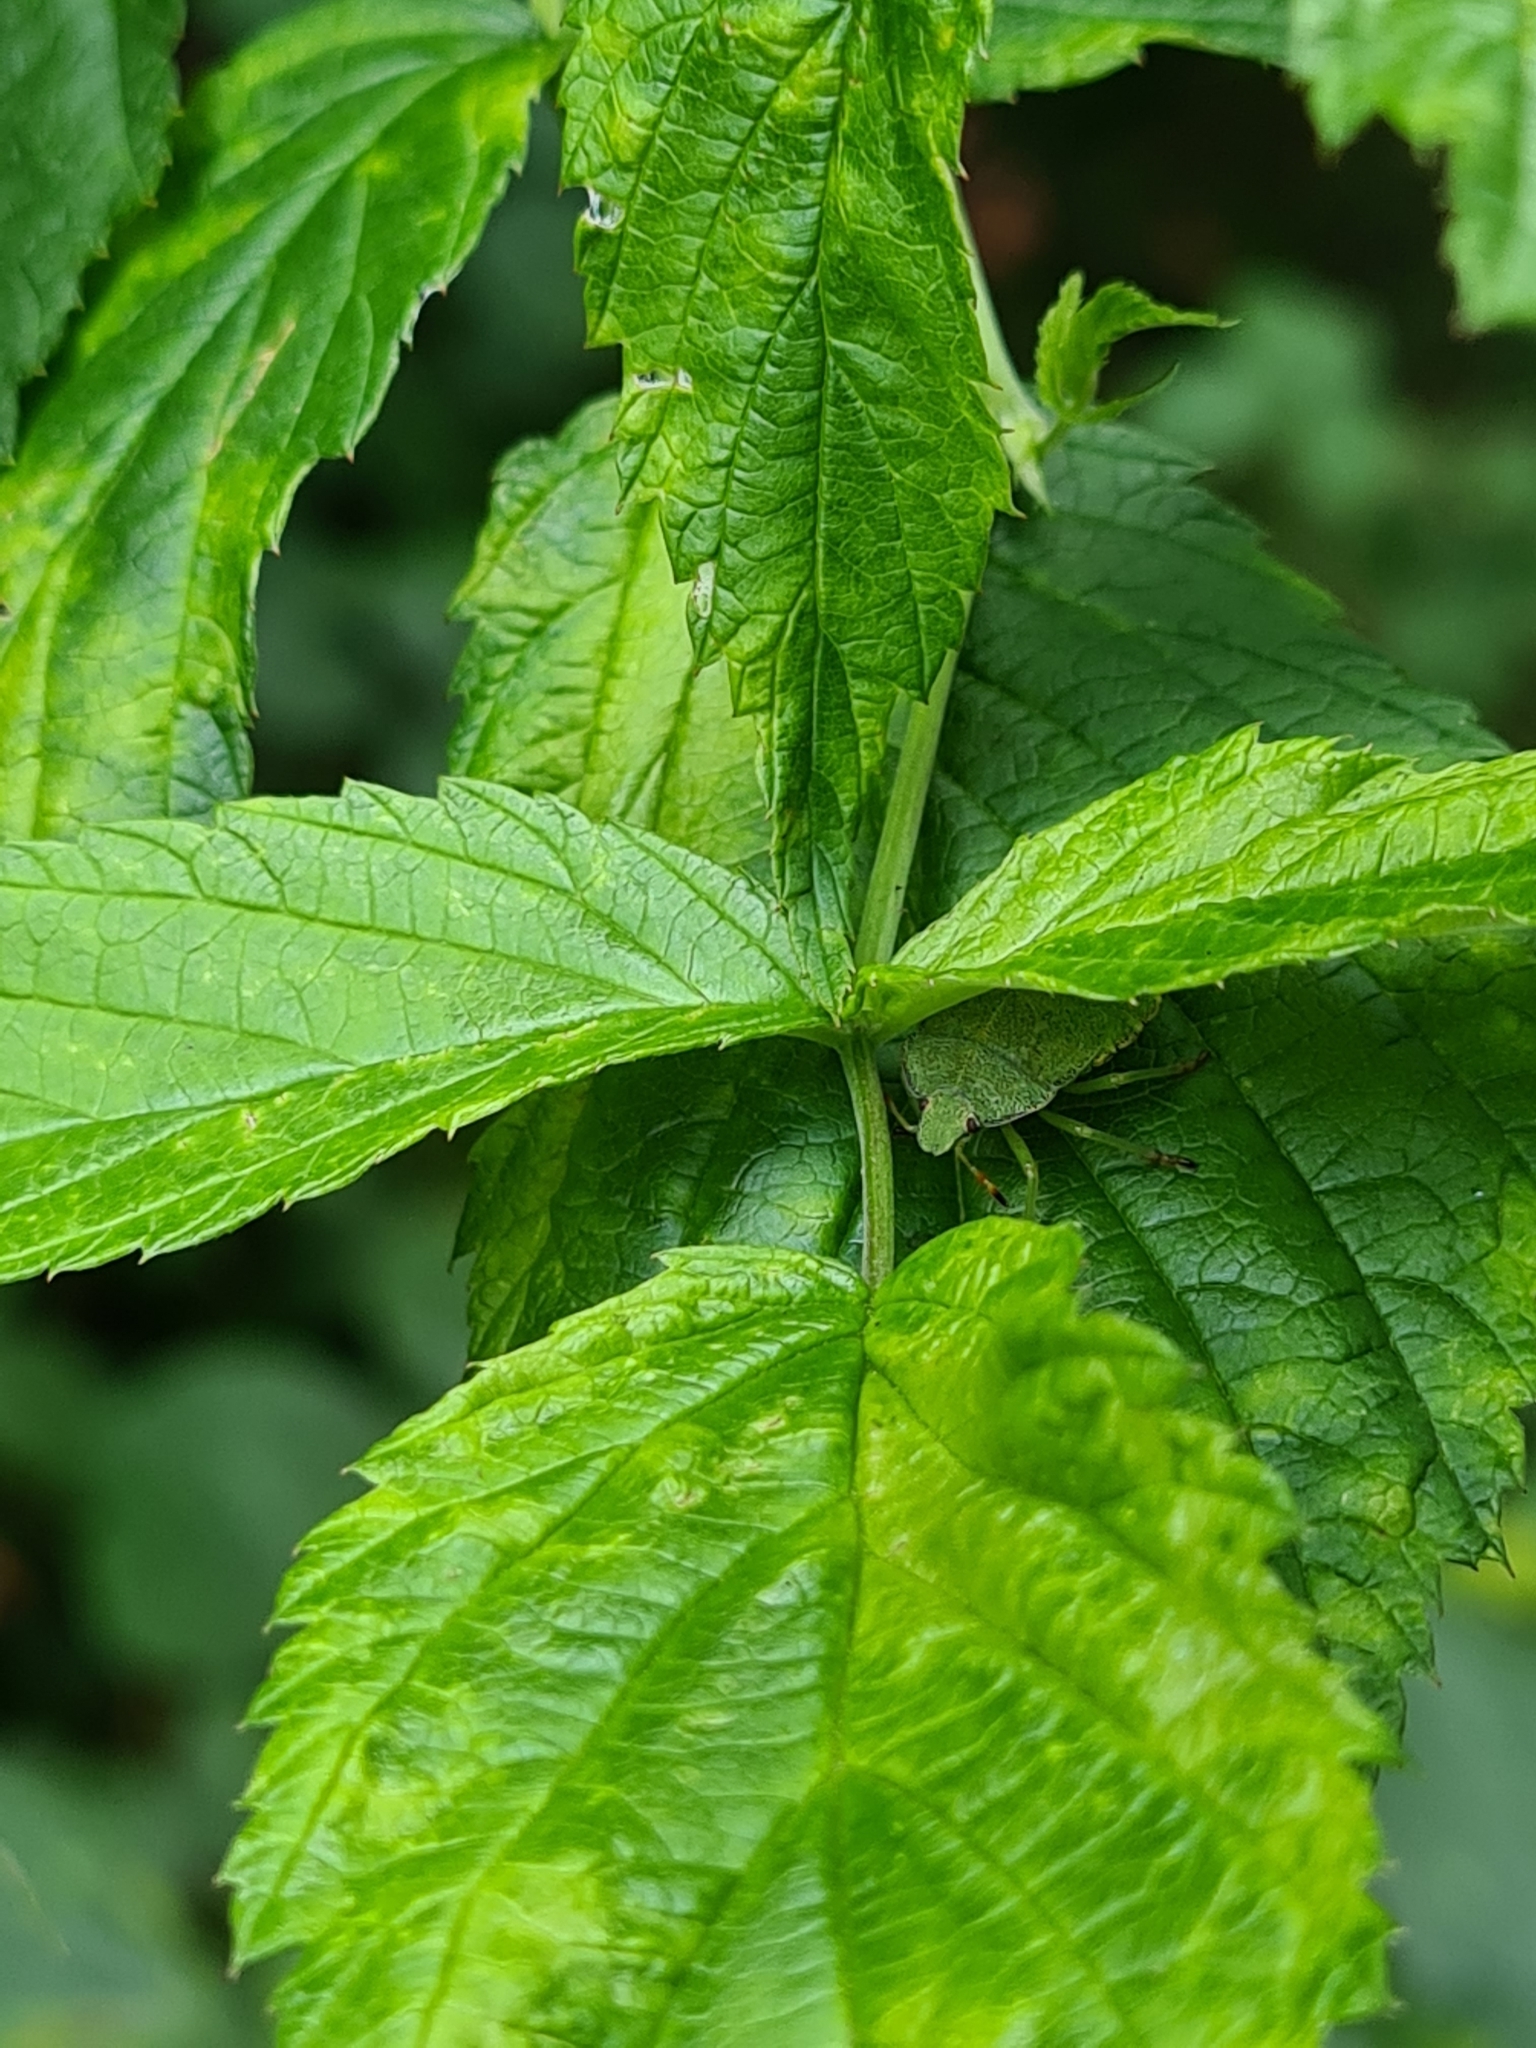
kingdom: Animalia
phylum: Arthropoda
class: Insecta
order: Hemiptera
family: Pentatomidae
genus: Palomena
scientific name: Palomena prasina
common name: Green shieldbug
